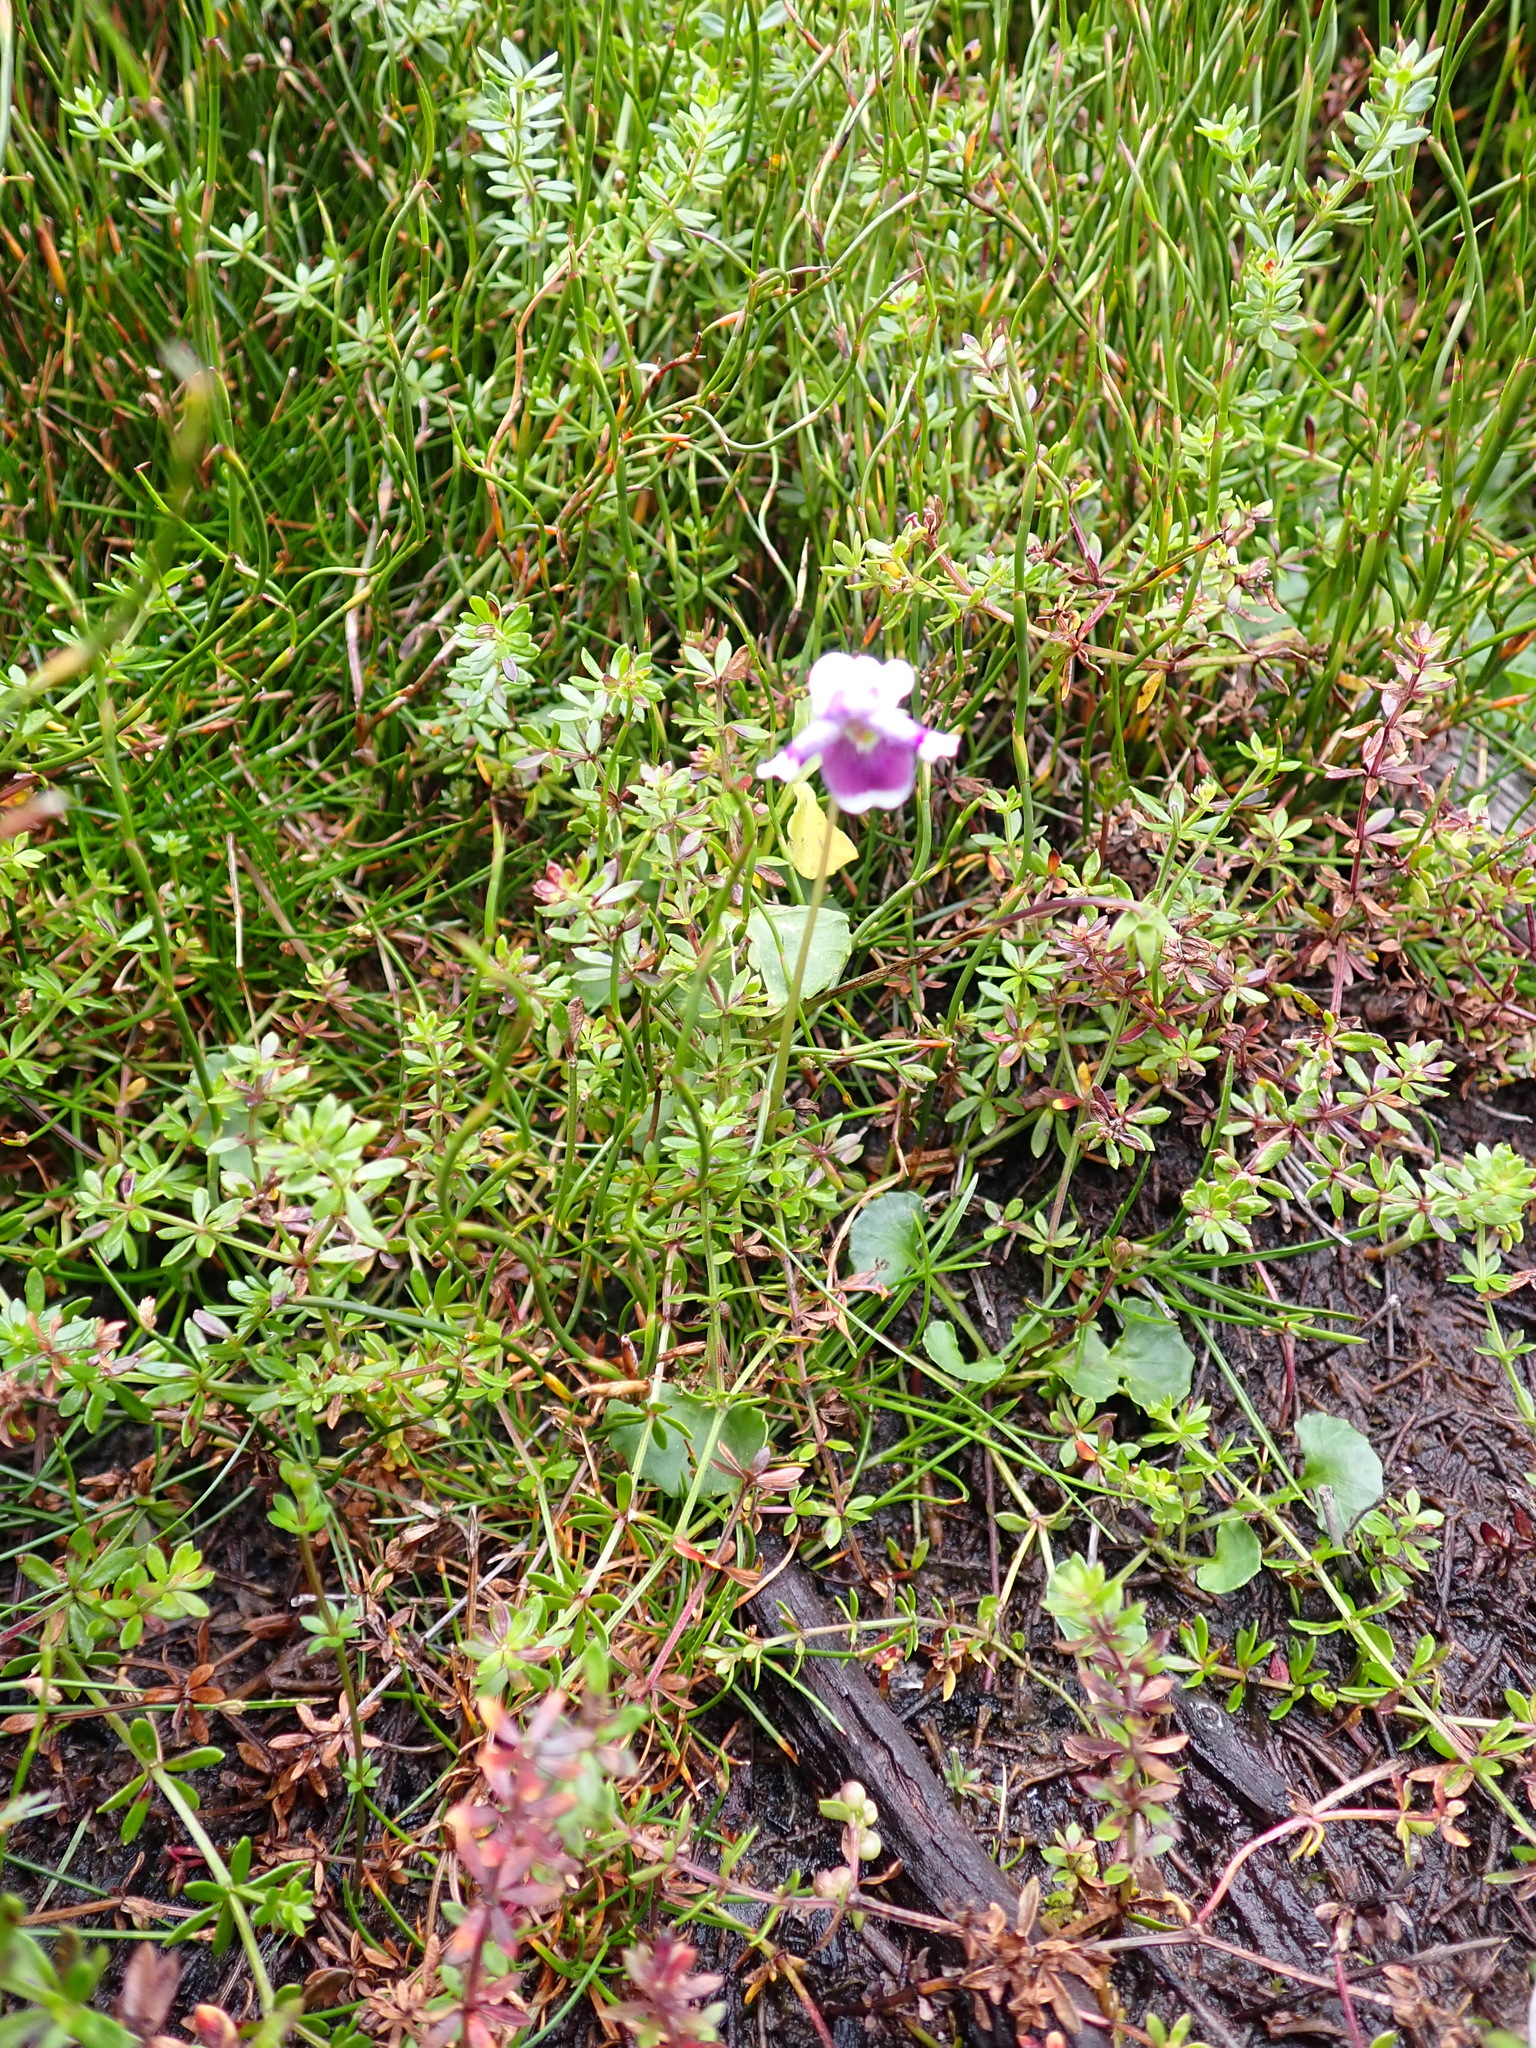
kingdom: Plantae
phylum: Tracheophyta
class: Magnoliopsida
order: Malpighiales
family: Violaceae
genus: Viola
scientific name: Viola eminens
